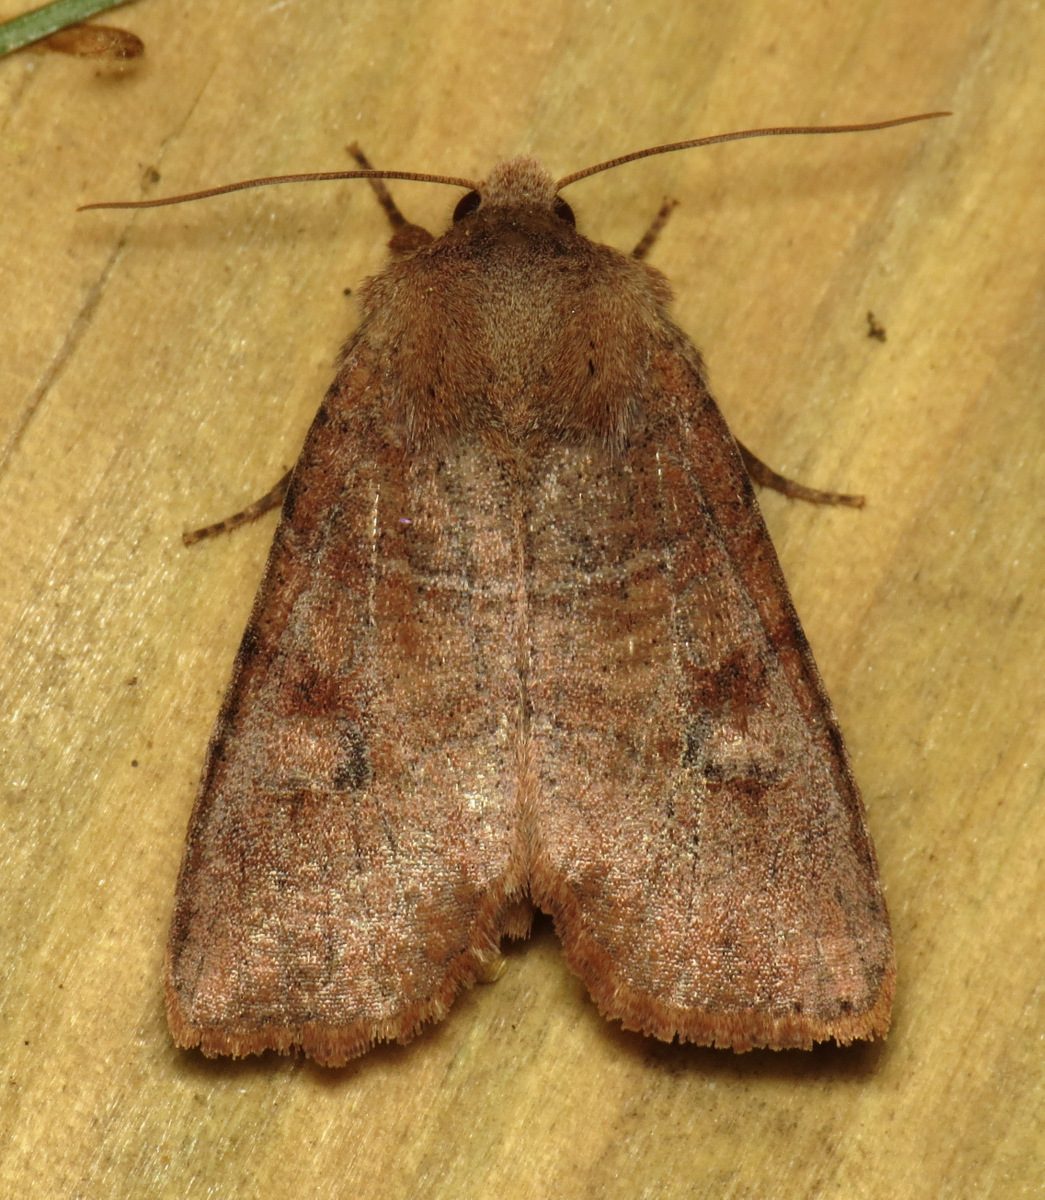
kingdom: Animalia
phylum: Arthropoda
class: Insecta
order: Lepidoptera
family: Noctuidae
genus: Crocigrapha
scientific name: Crocigrapha normani
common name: Norman's quaker
